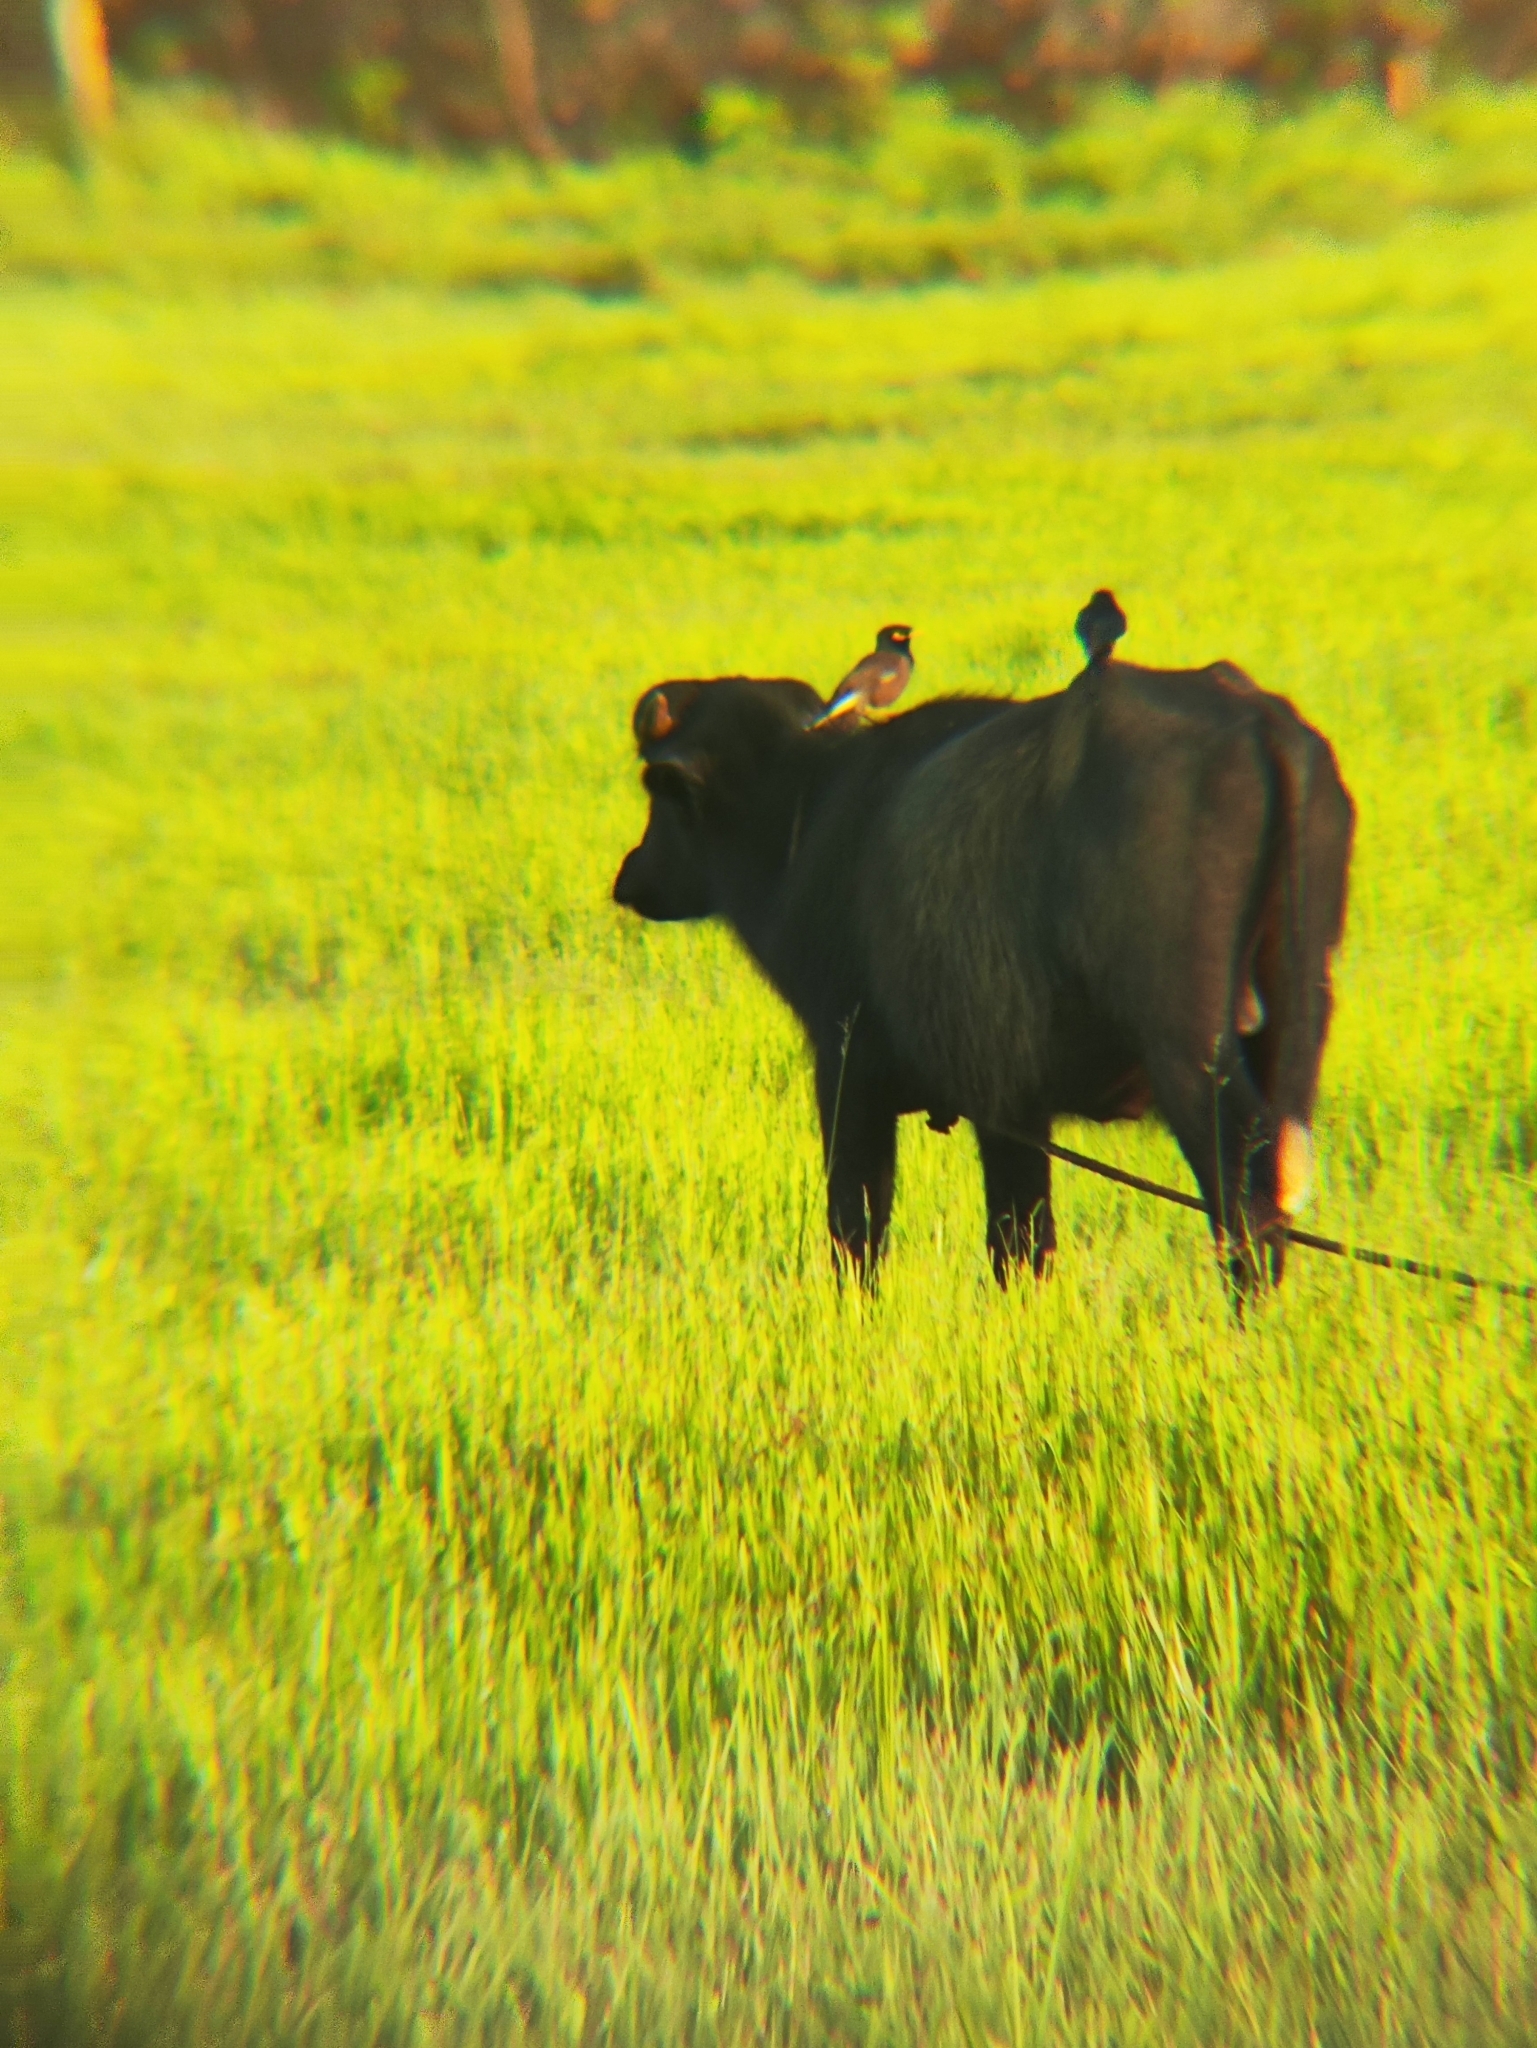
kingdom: Animalia
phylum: Chordata
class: Aves
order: Passeriformes
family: Sturnidae
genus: Acridotheres
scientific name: Acridotheres tristis
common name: Common myna
